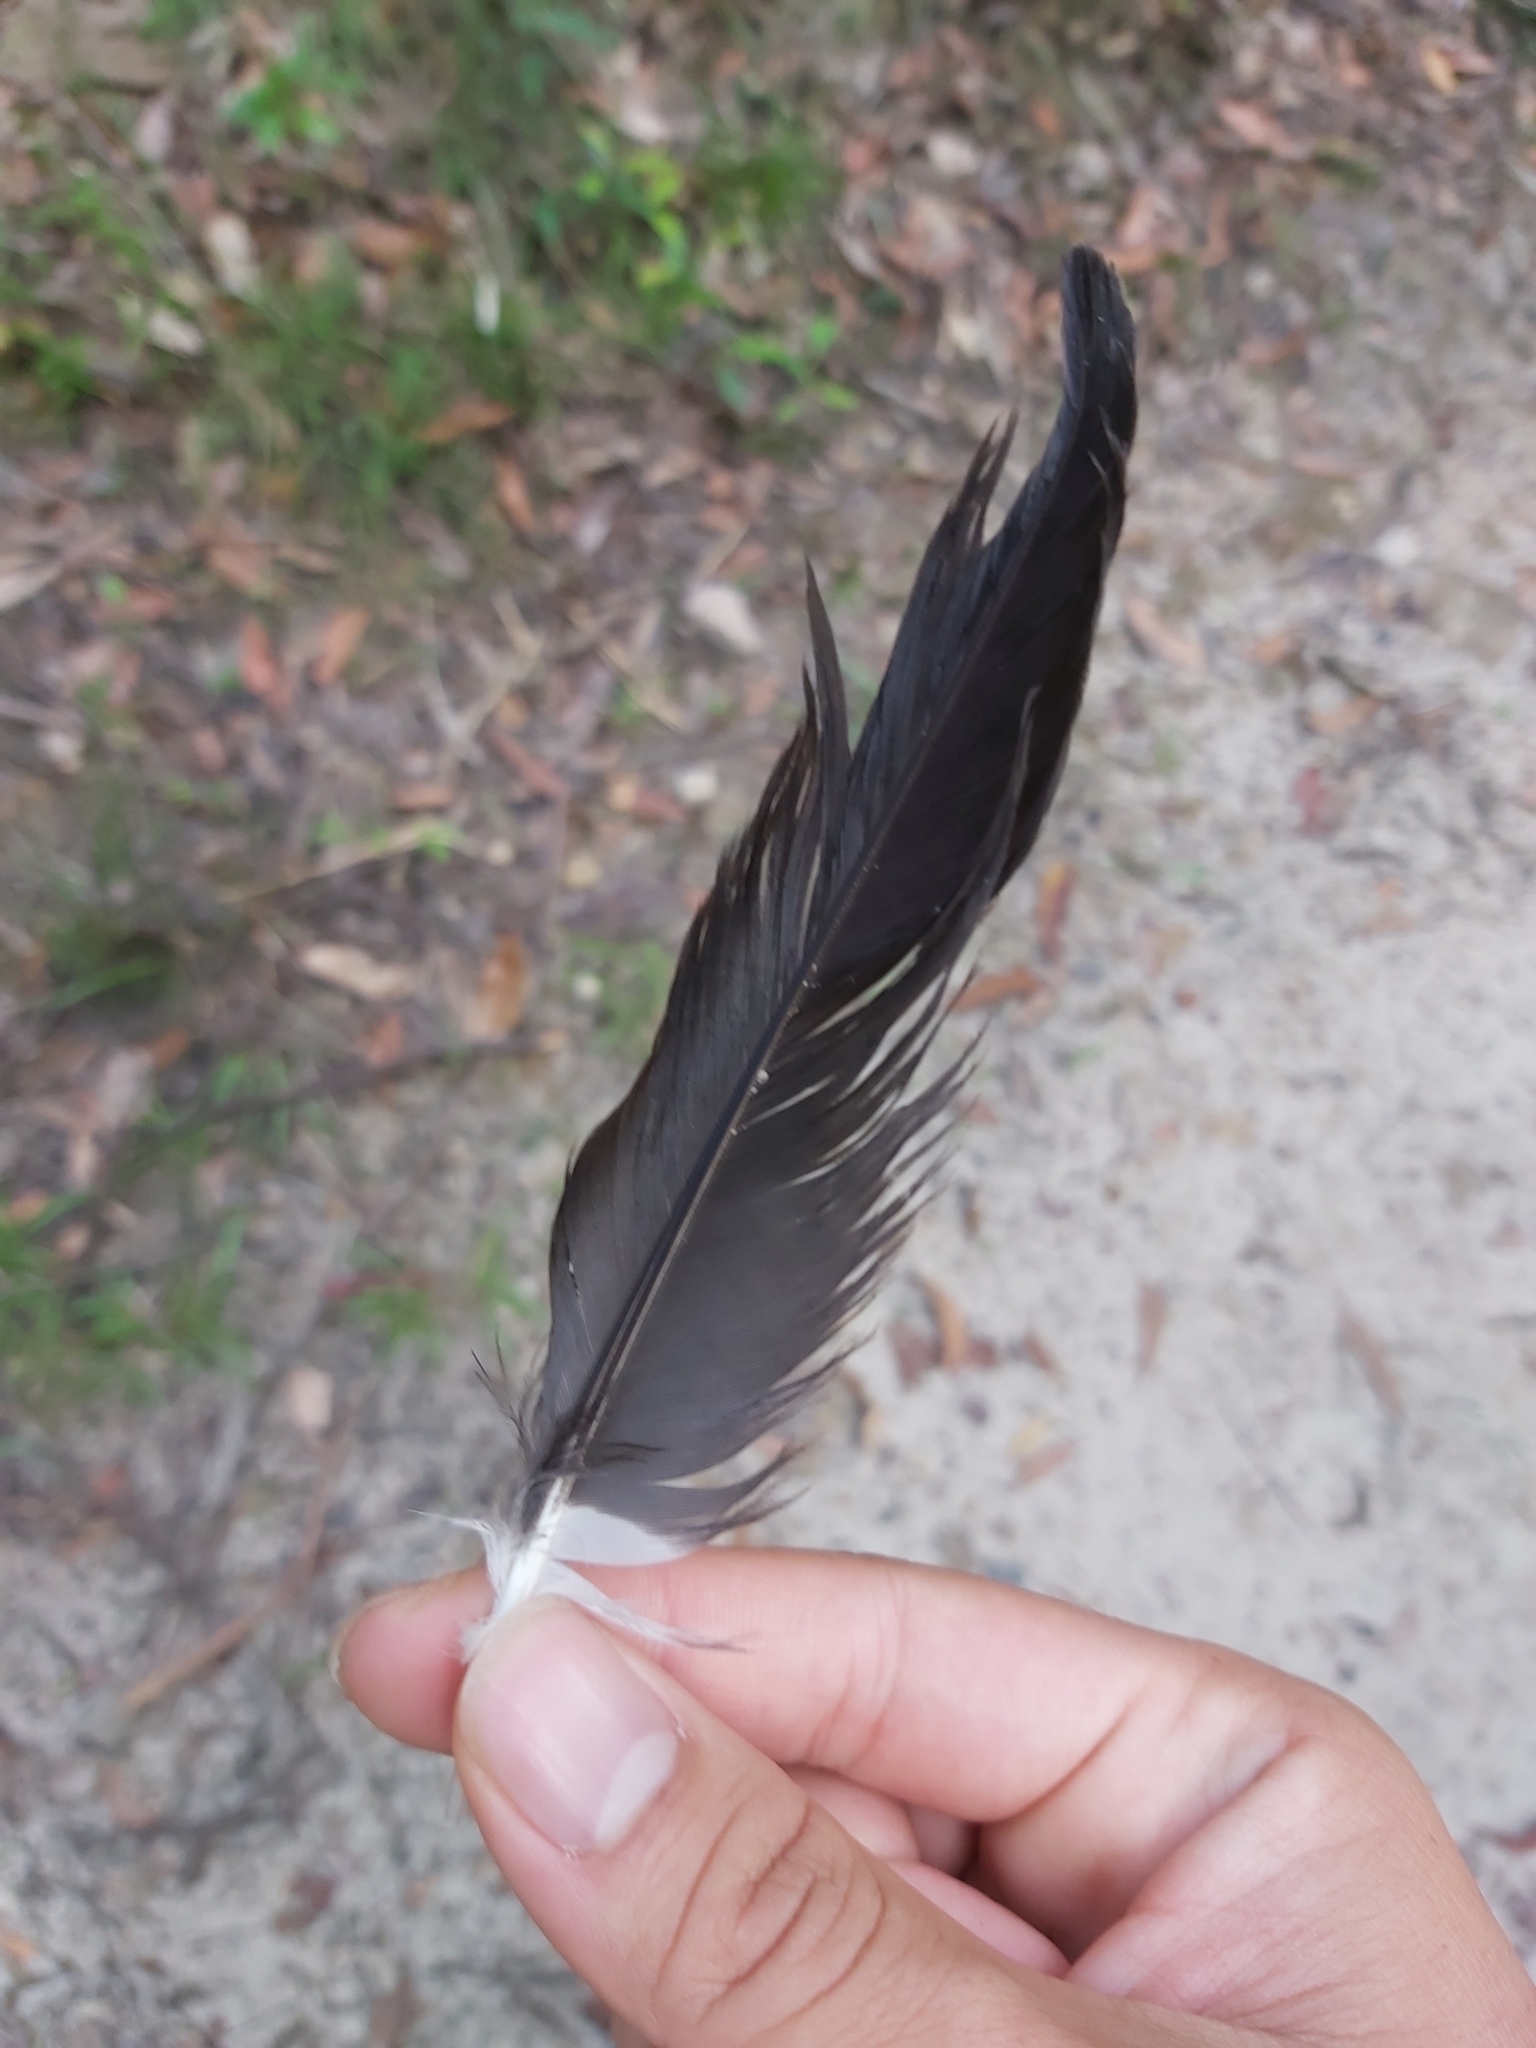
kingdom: Animalia
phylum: Chordata
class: Aves
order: Passeriformes
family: Cracticidae
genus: Strepera
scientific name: Strepera graculina
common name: Pied currawong
